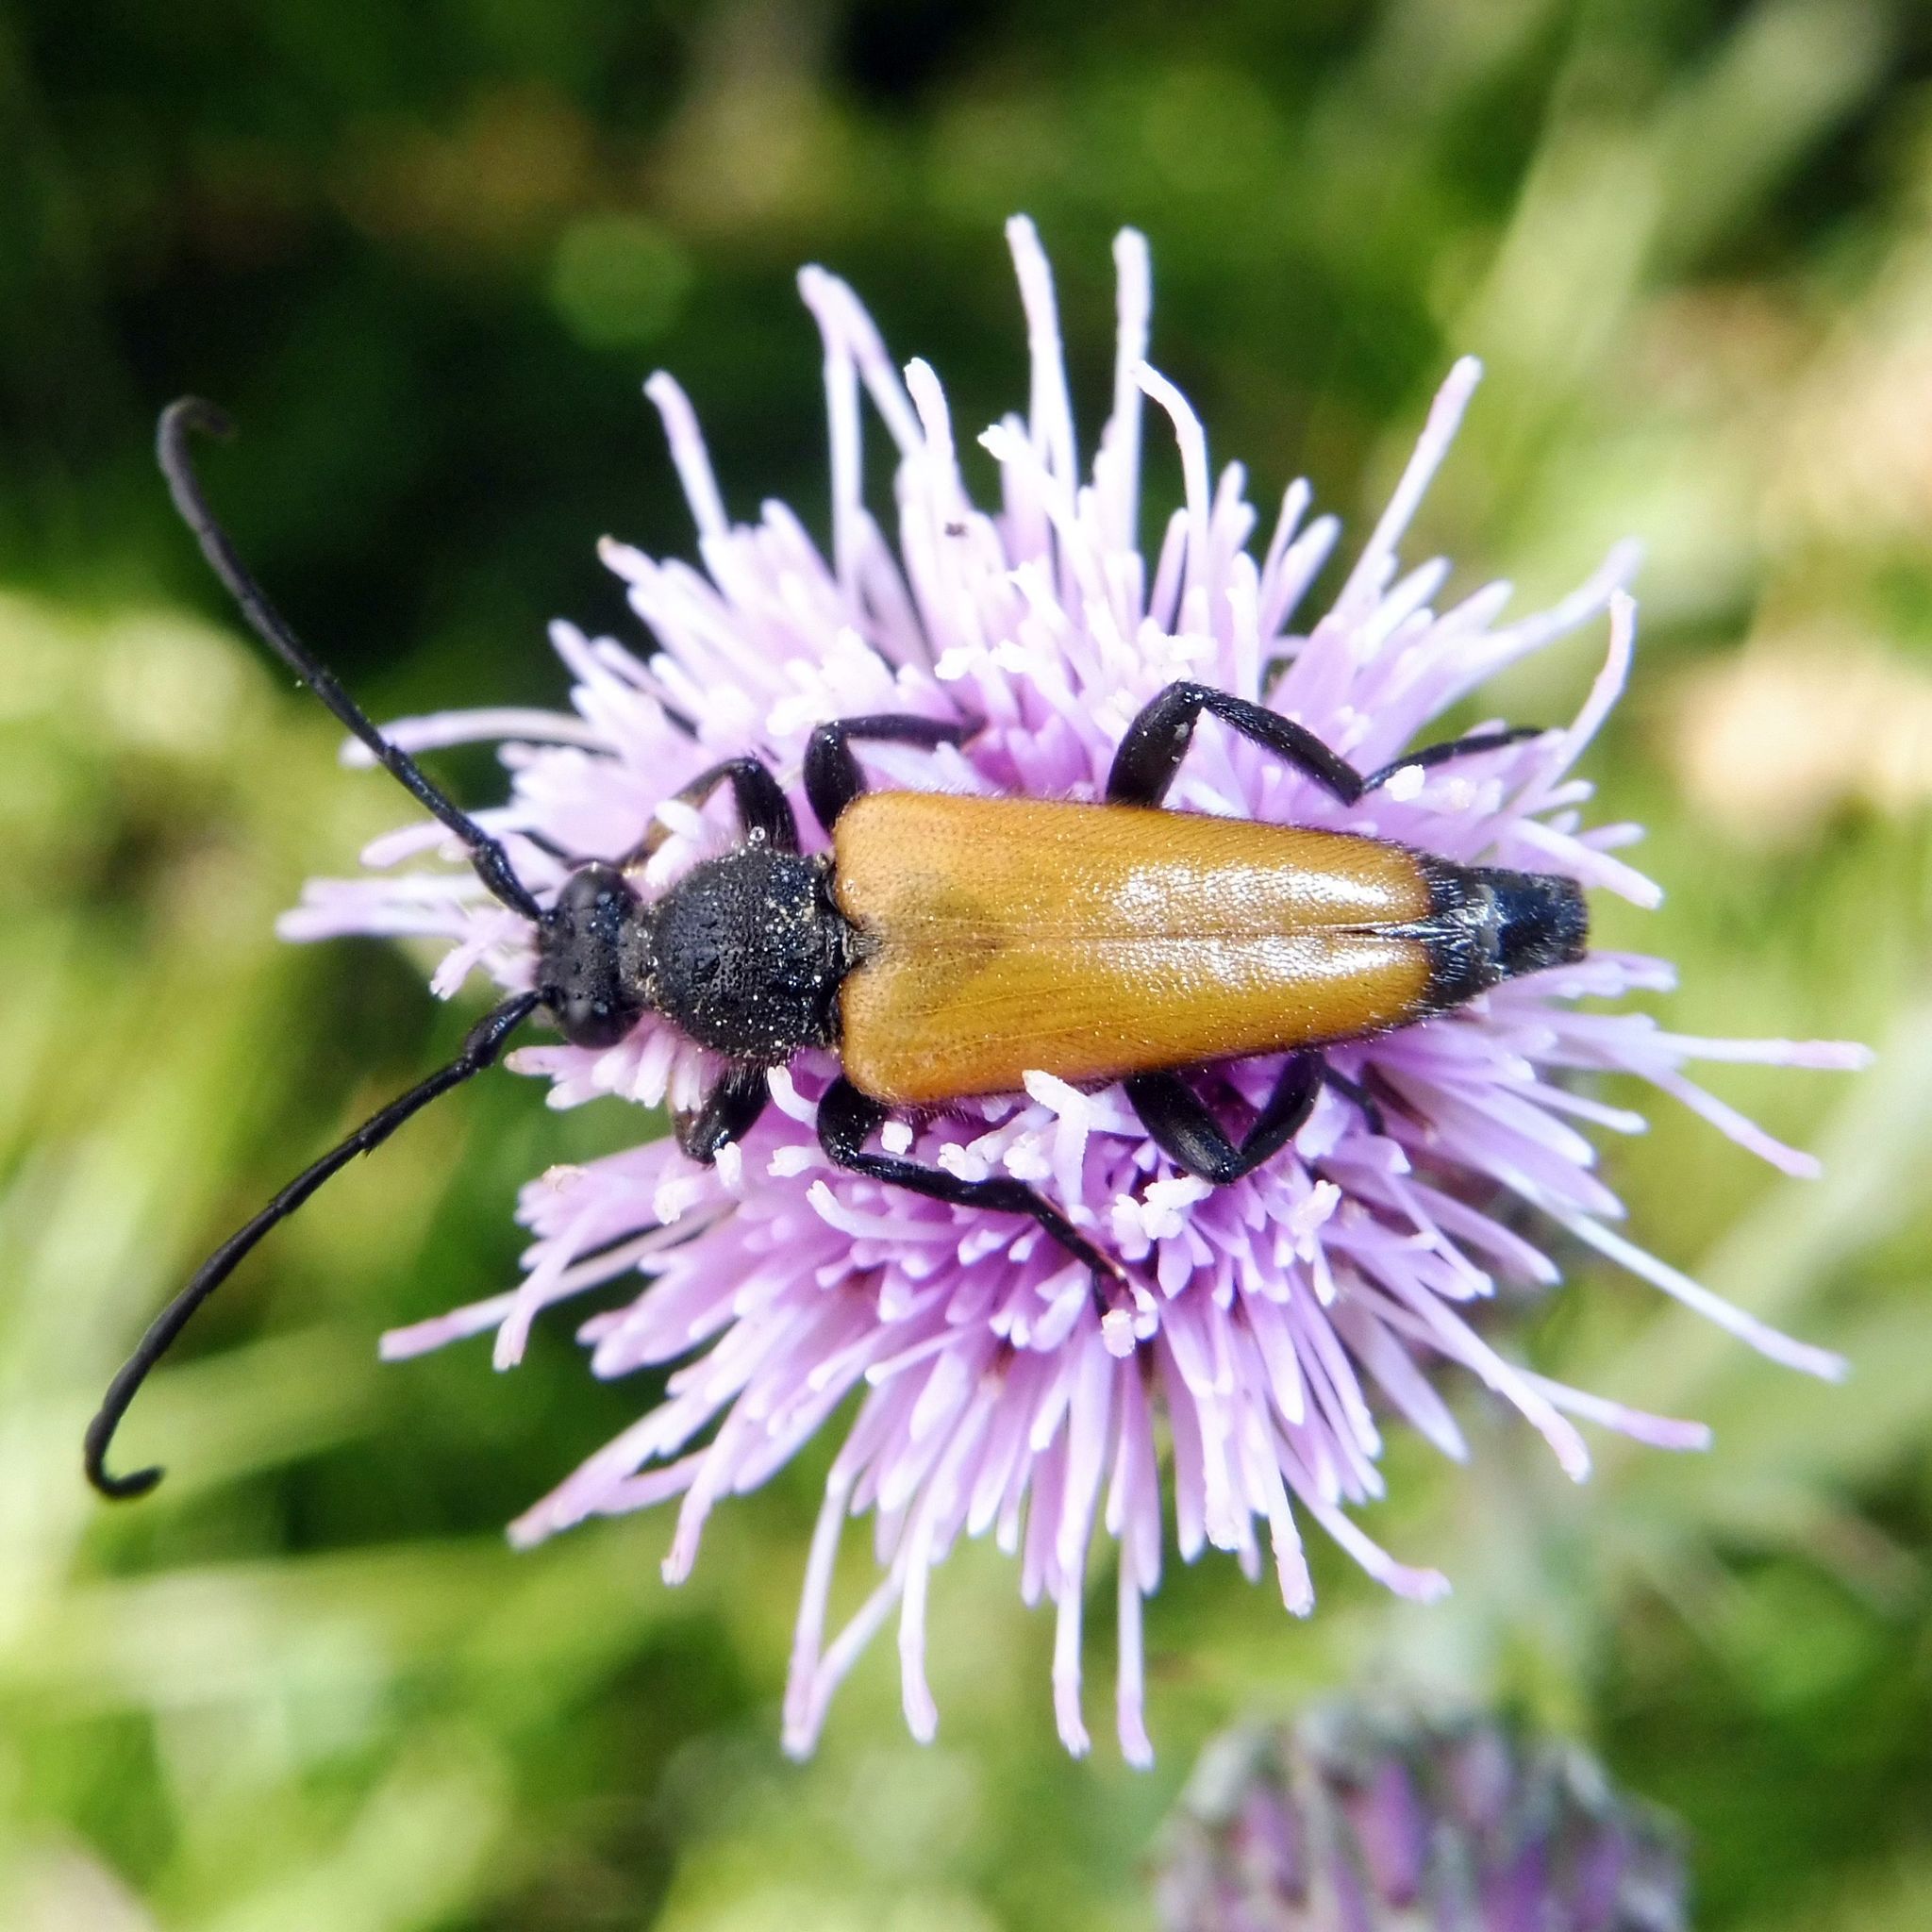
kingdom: Animalia
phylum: Arthropoda
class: Insecta
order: Coleoptera
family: Cerambycidae
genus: Paracorymbia
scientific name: Paracorymbia fulva
